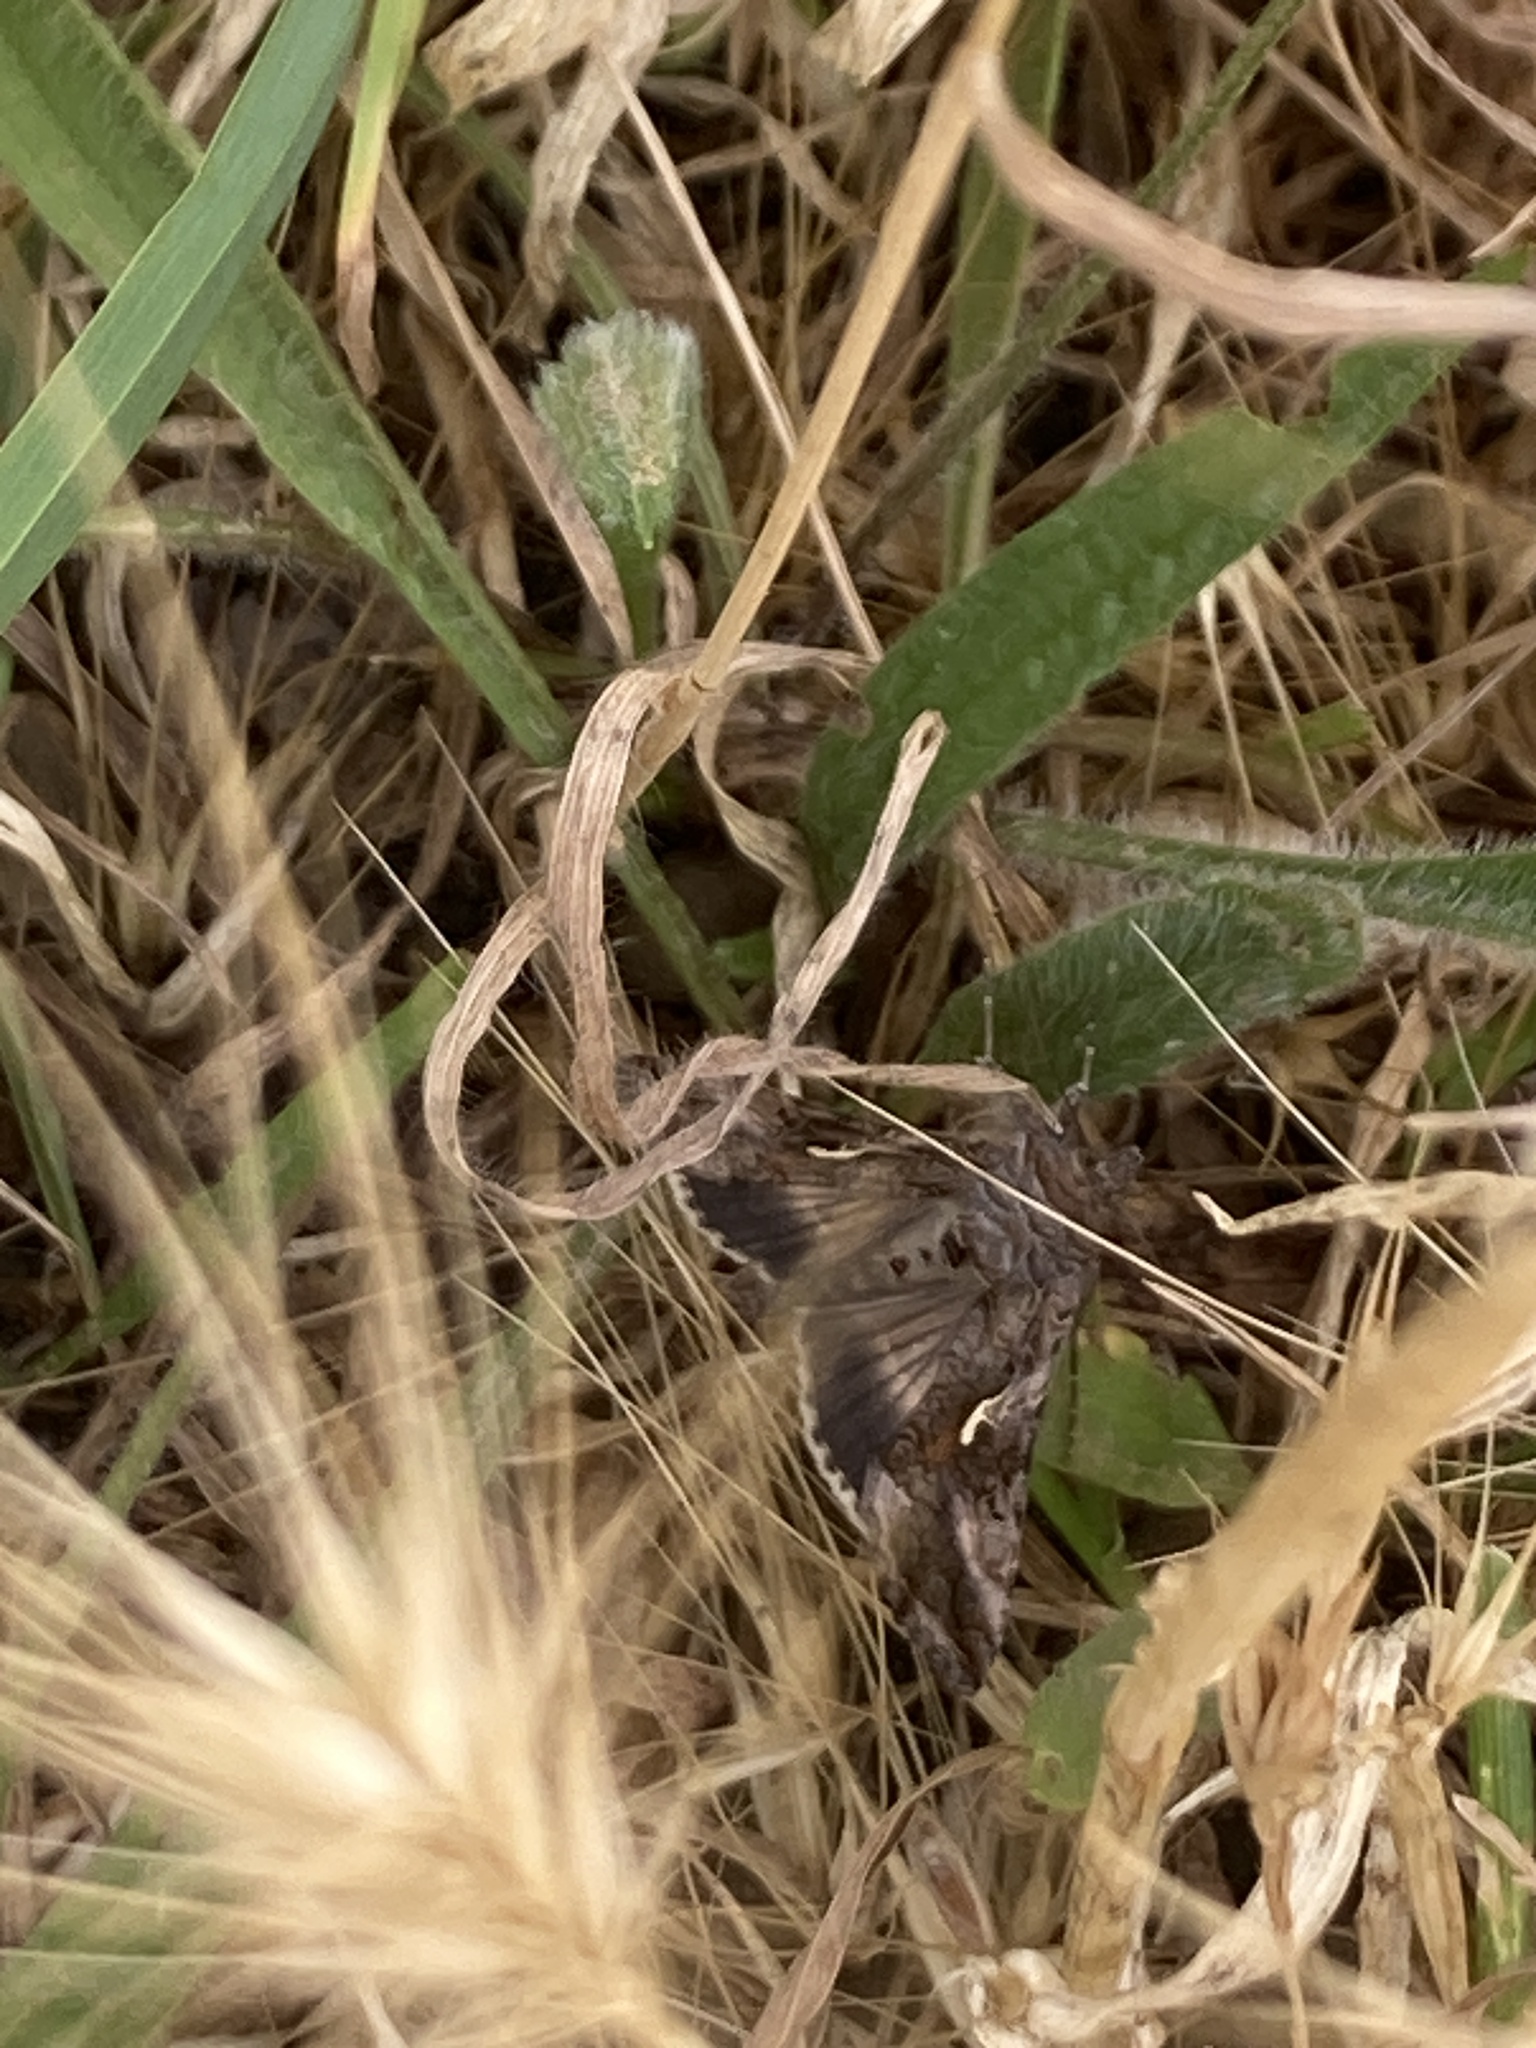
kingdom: Animalia
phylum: Arthropoda
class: Insecta
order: Lepidoptera
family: Noctuidae
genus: Autographa
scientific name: Autographa gamma
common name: Silver y
